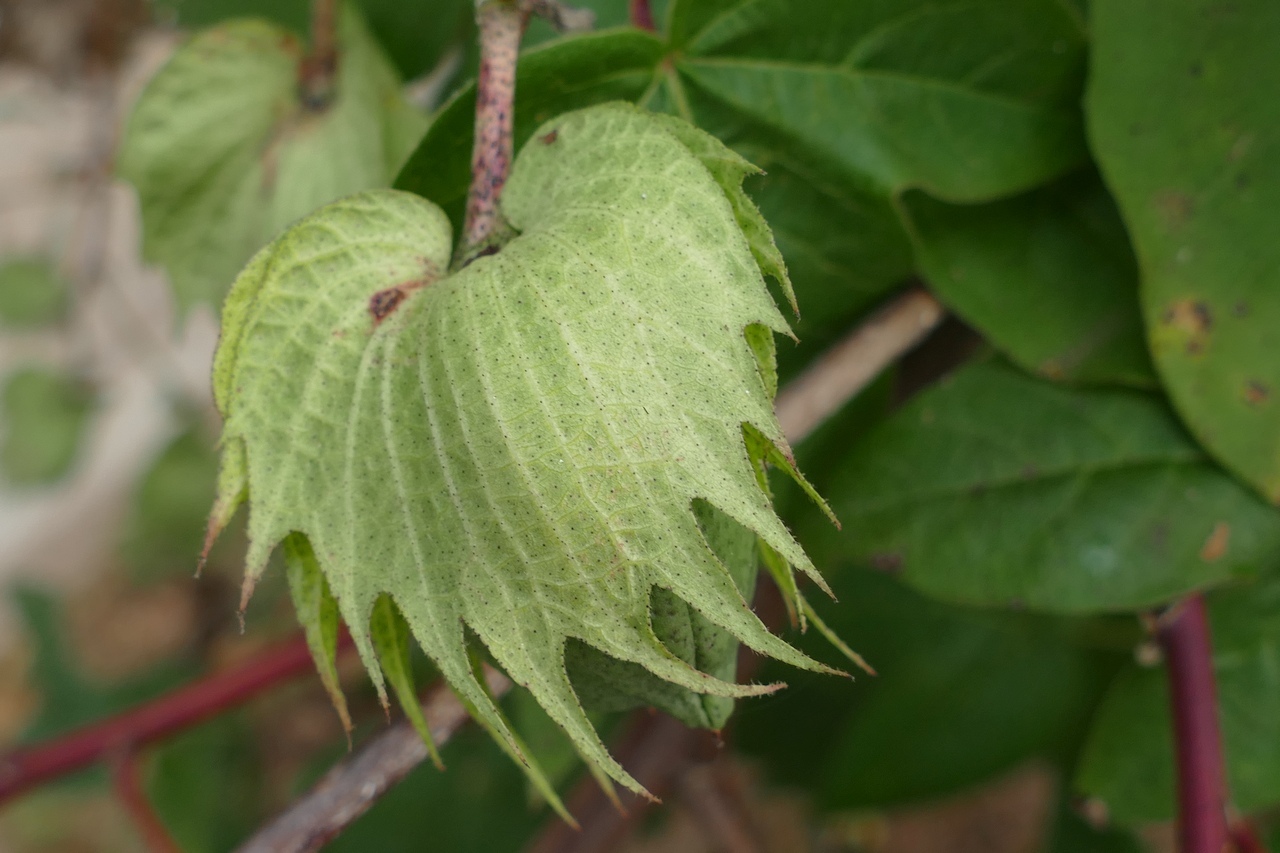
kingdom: Plantae
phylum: Tracheophyta
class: Magnoliopsida
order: Malvales
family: Malvaceae
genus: Gossypium
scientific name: Gossypium barbadense
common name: Creole cotton
